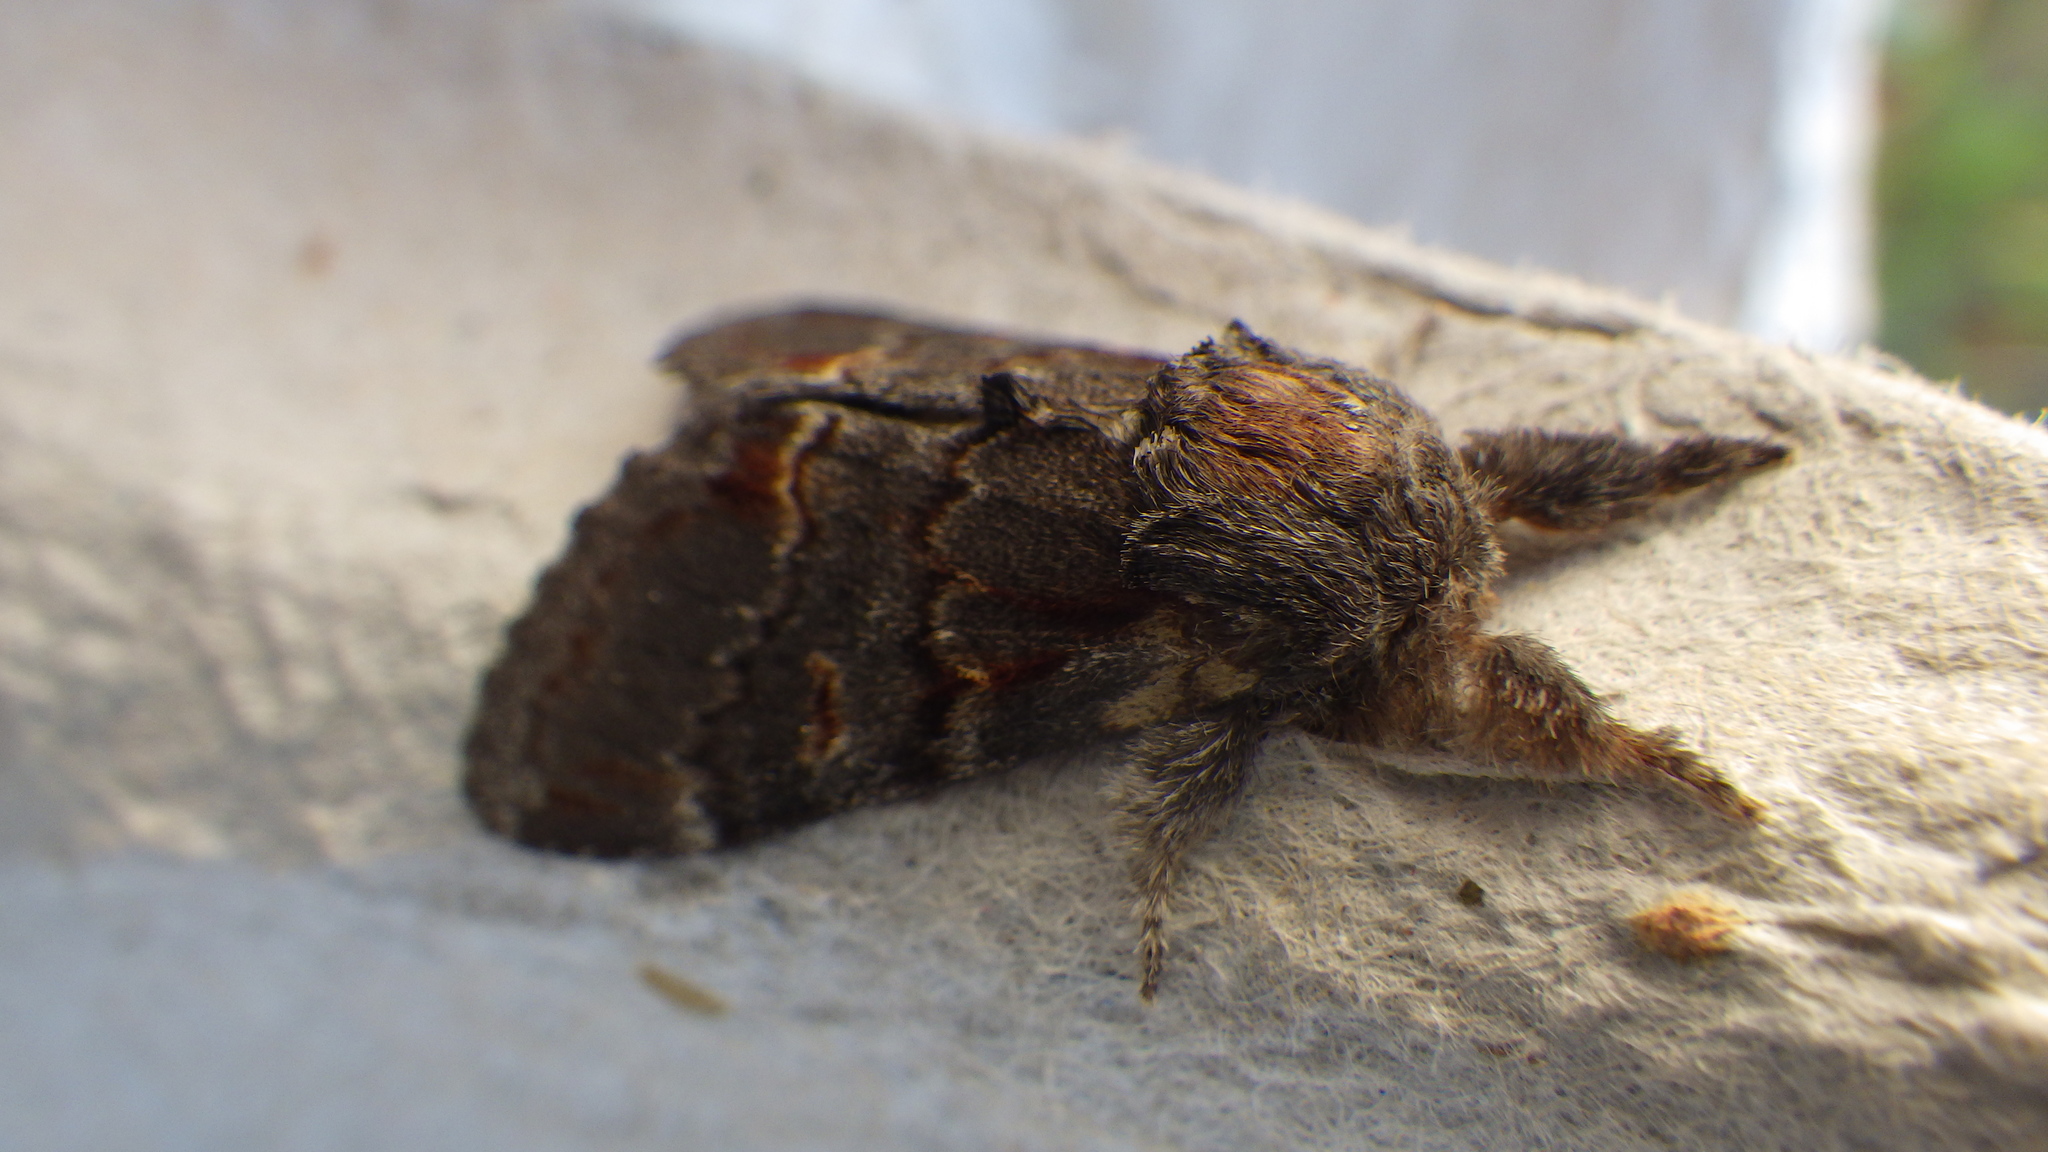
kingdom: Animalia
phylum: Arthropoda
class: Insecta
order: Lepidoptera
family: Notodontidae
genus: Notodonta
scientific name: Notodonta dromedarius
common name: Iron prominent
